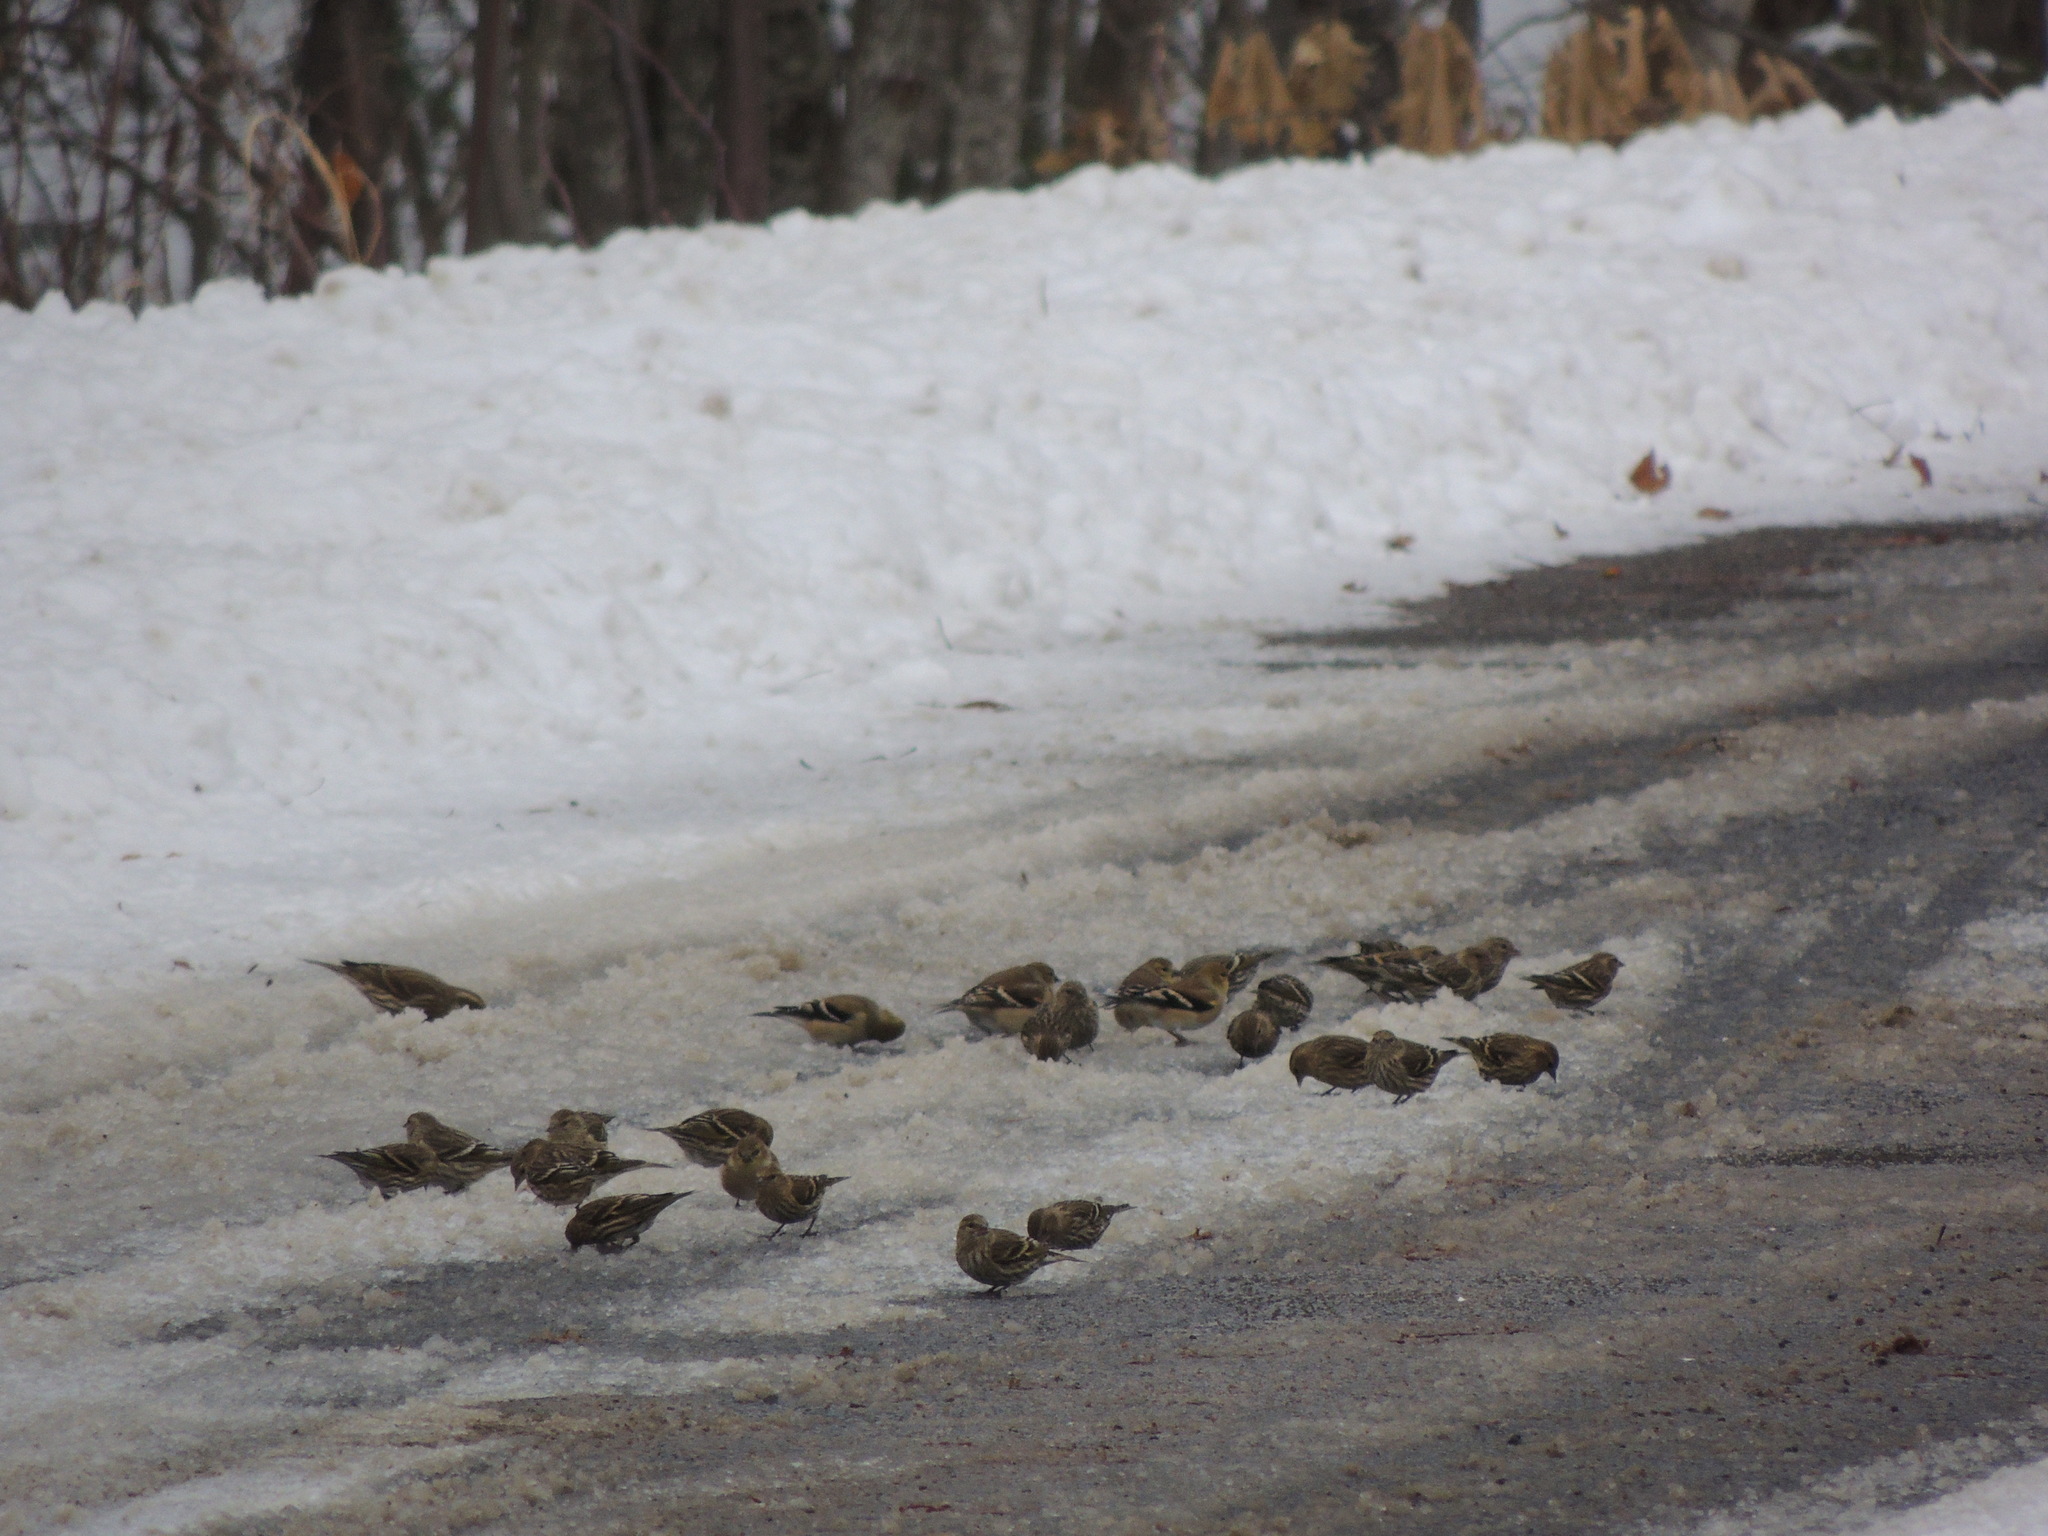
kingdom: Animalia
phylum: Chordata
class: Aves
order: Passeriformes
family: Fringillidae
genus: Spinus
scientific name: Spinus pinus
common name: Pine siskin
